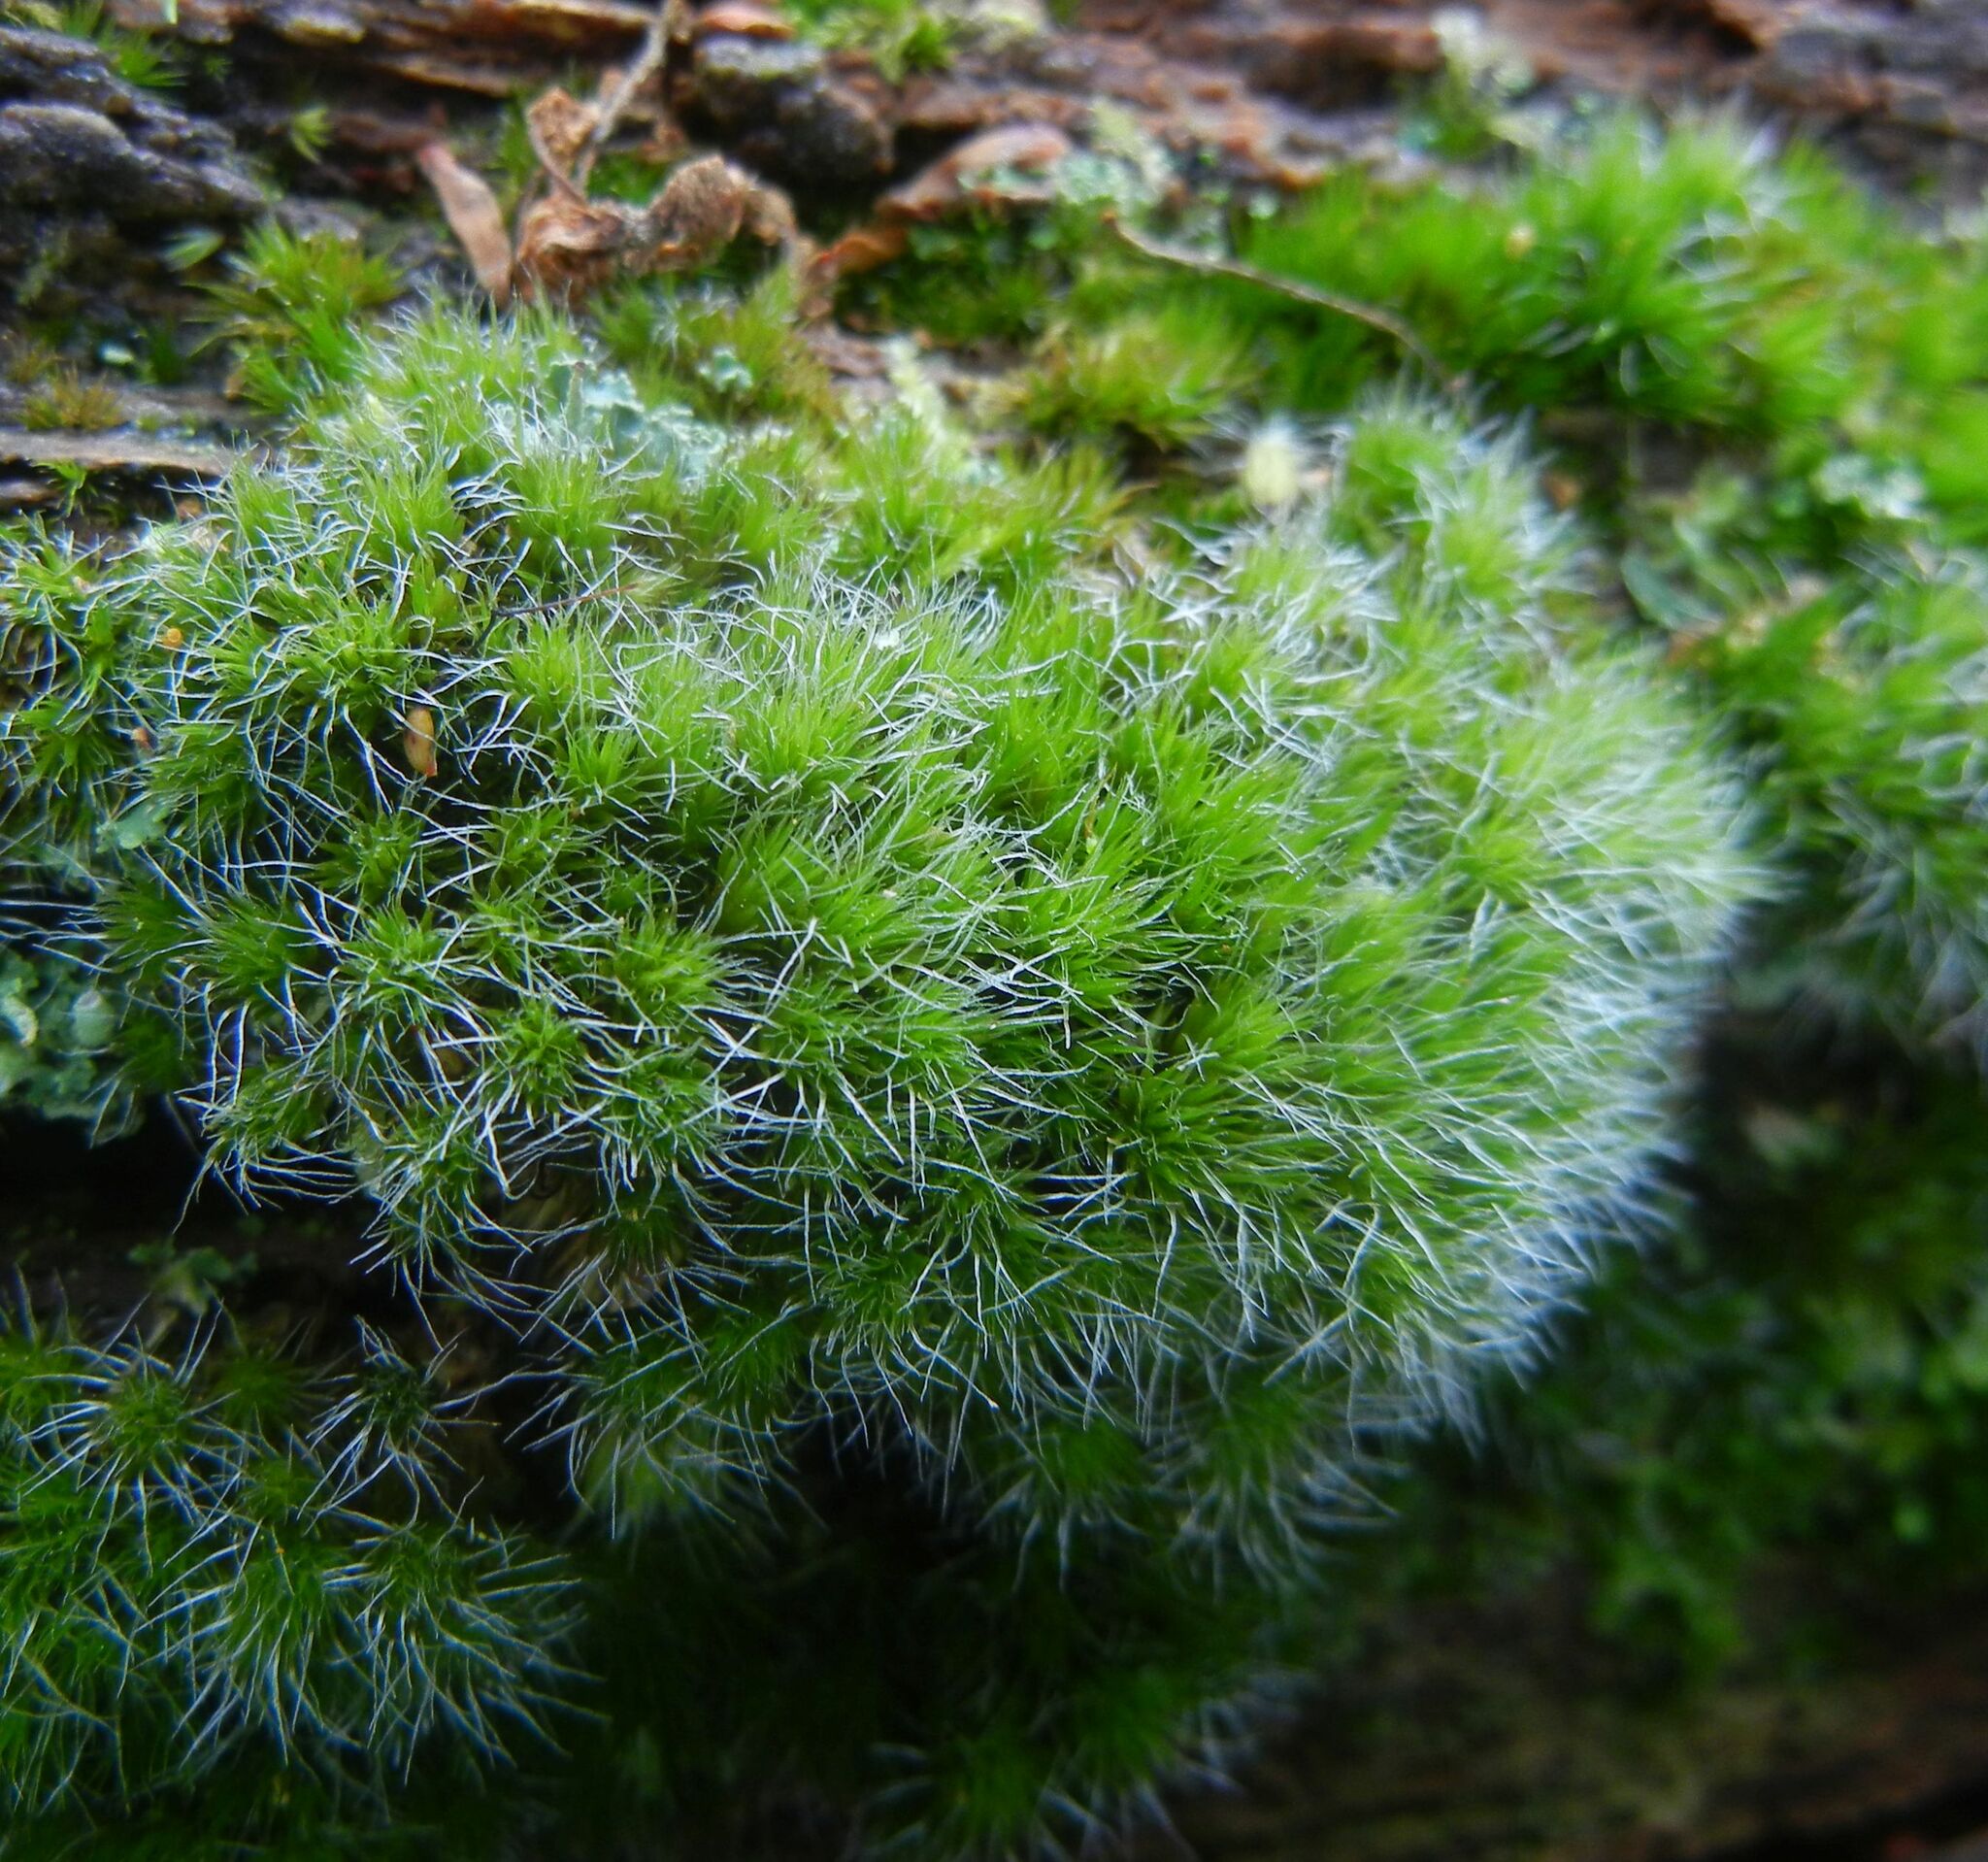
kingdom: Plantae
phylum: Bryophyta
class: Bryopsida
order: Dicranales
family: Leucobryaceae
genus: Campylopus
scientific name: Campylopus introflexus
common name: Heath star moss
